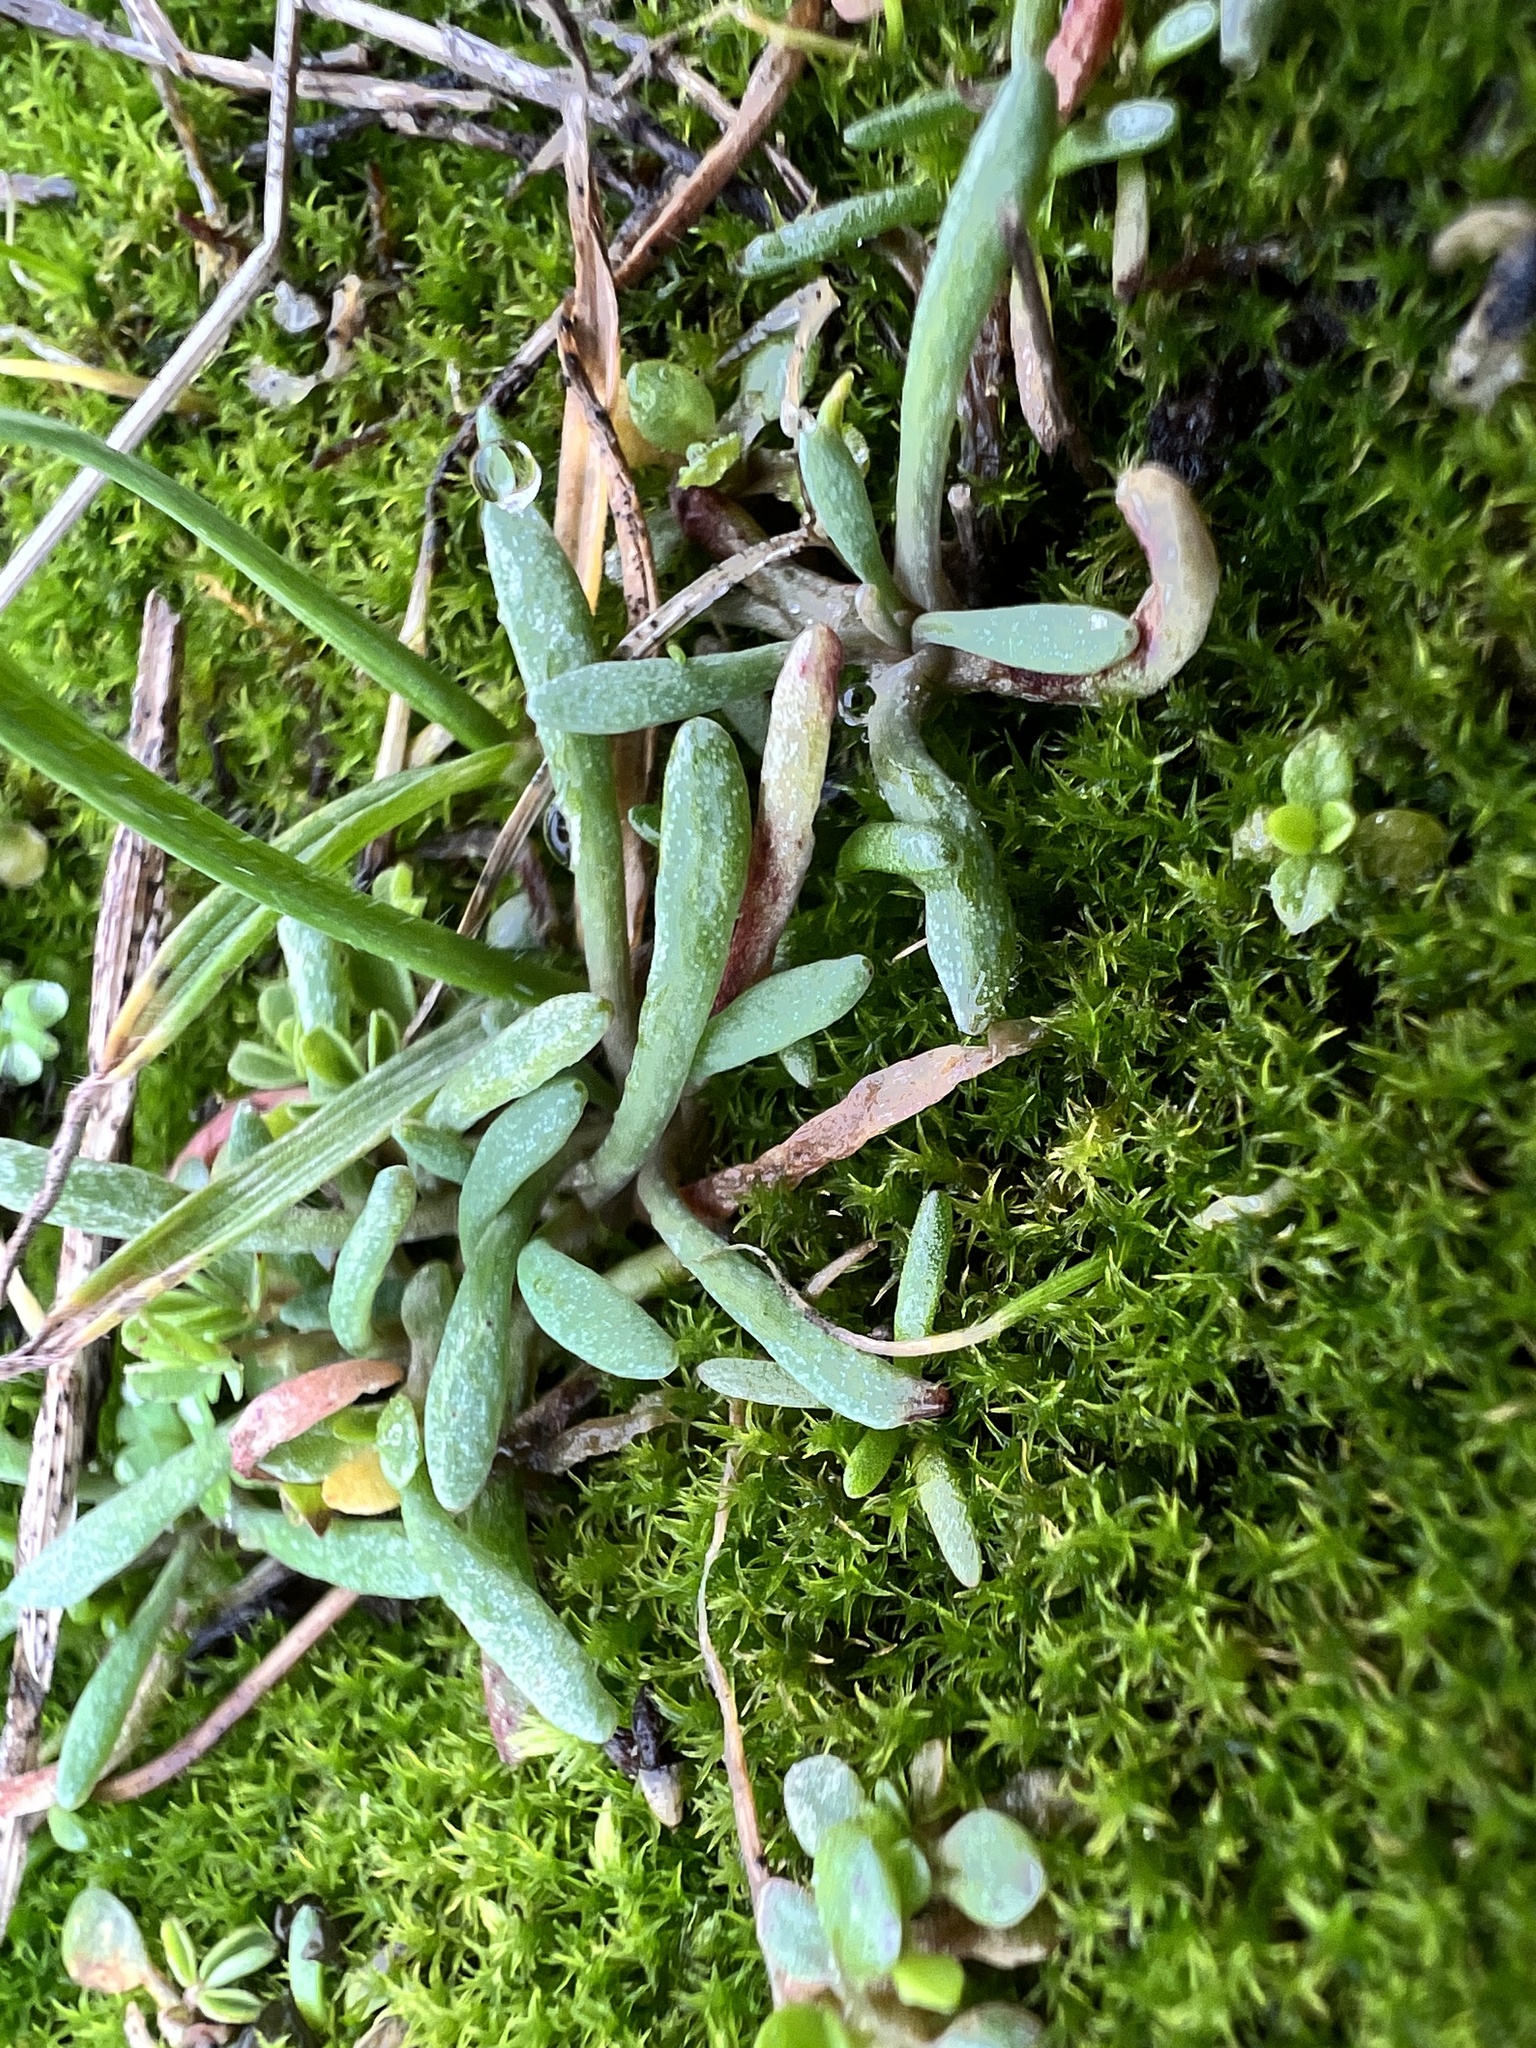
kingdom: Plantae
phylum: Tracheophyta
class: Magnoliopsida
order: Caryophyllales
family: Montiaceae
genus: Claytonia
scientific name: Claytonia exigua
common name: Pale spring beauty
